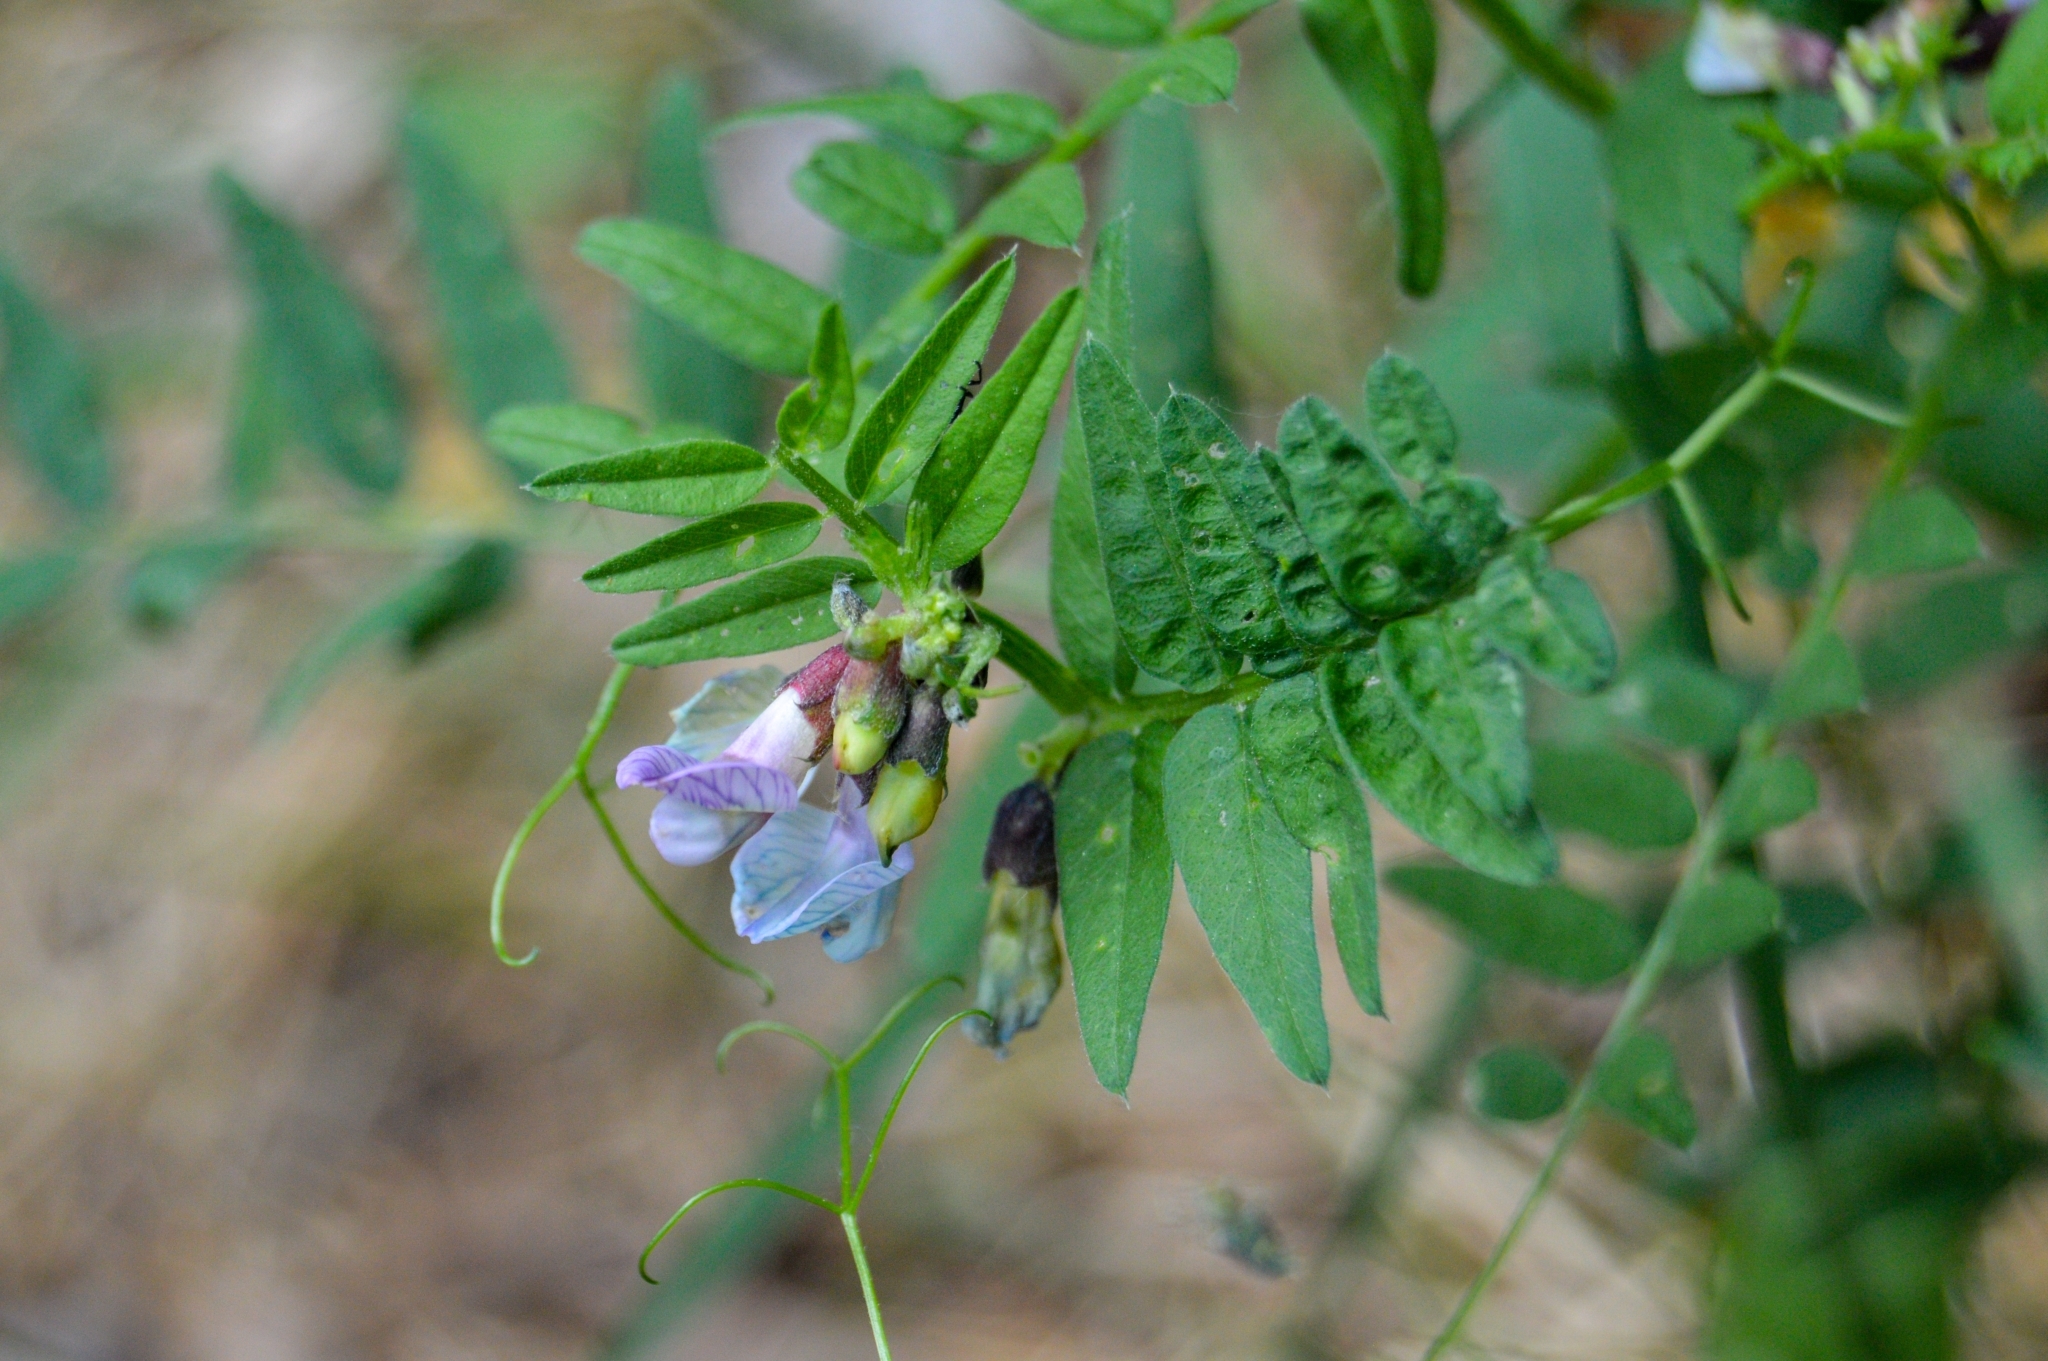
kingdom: Plantae
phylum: Tracheophyta
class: Magnoliopsida
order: Fabales
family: Fabaceae
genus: Vicia
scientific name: Vicia sepium
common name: Bush vetch
